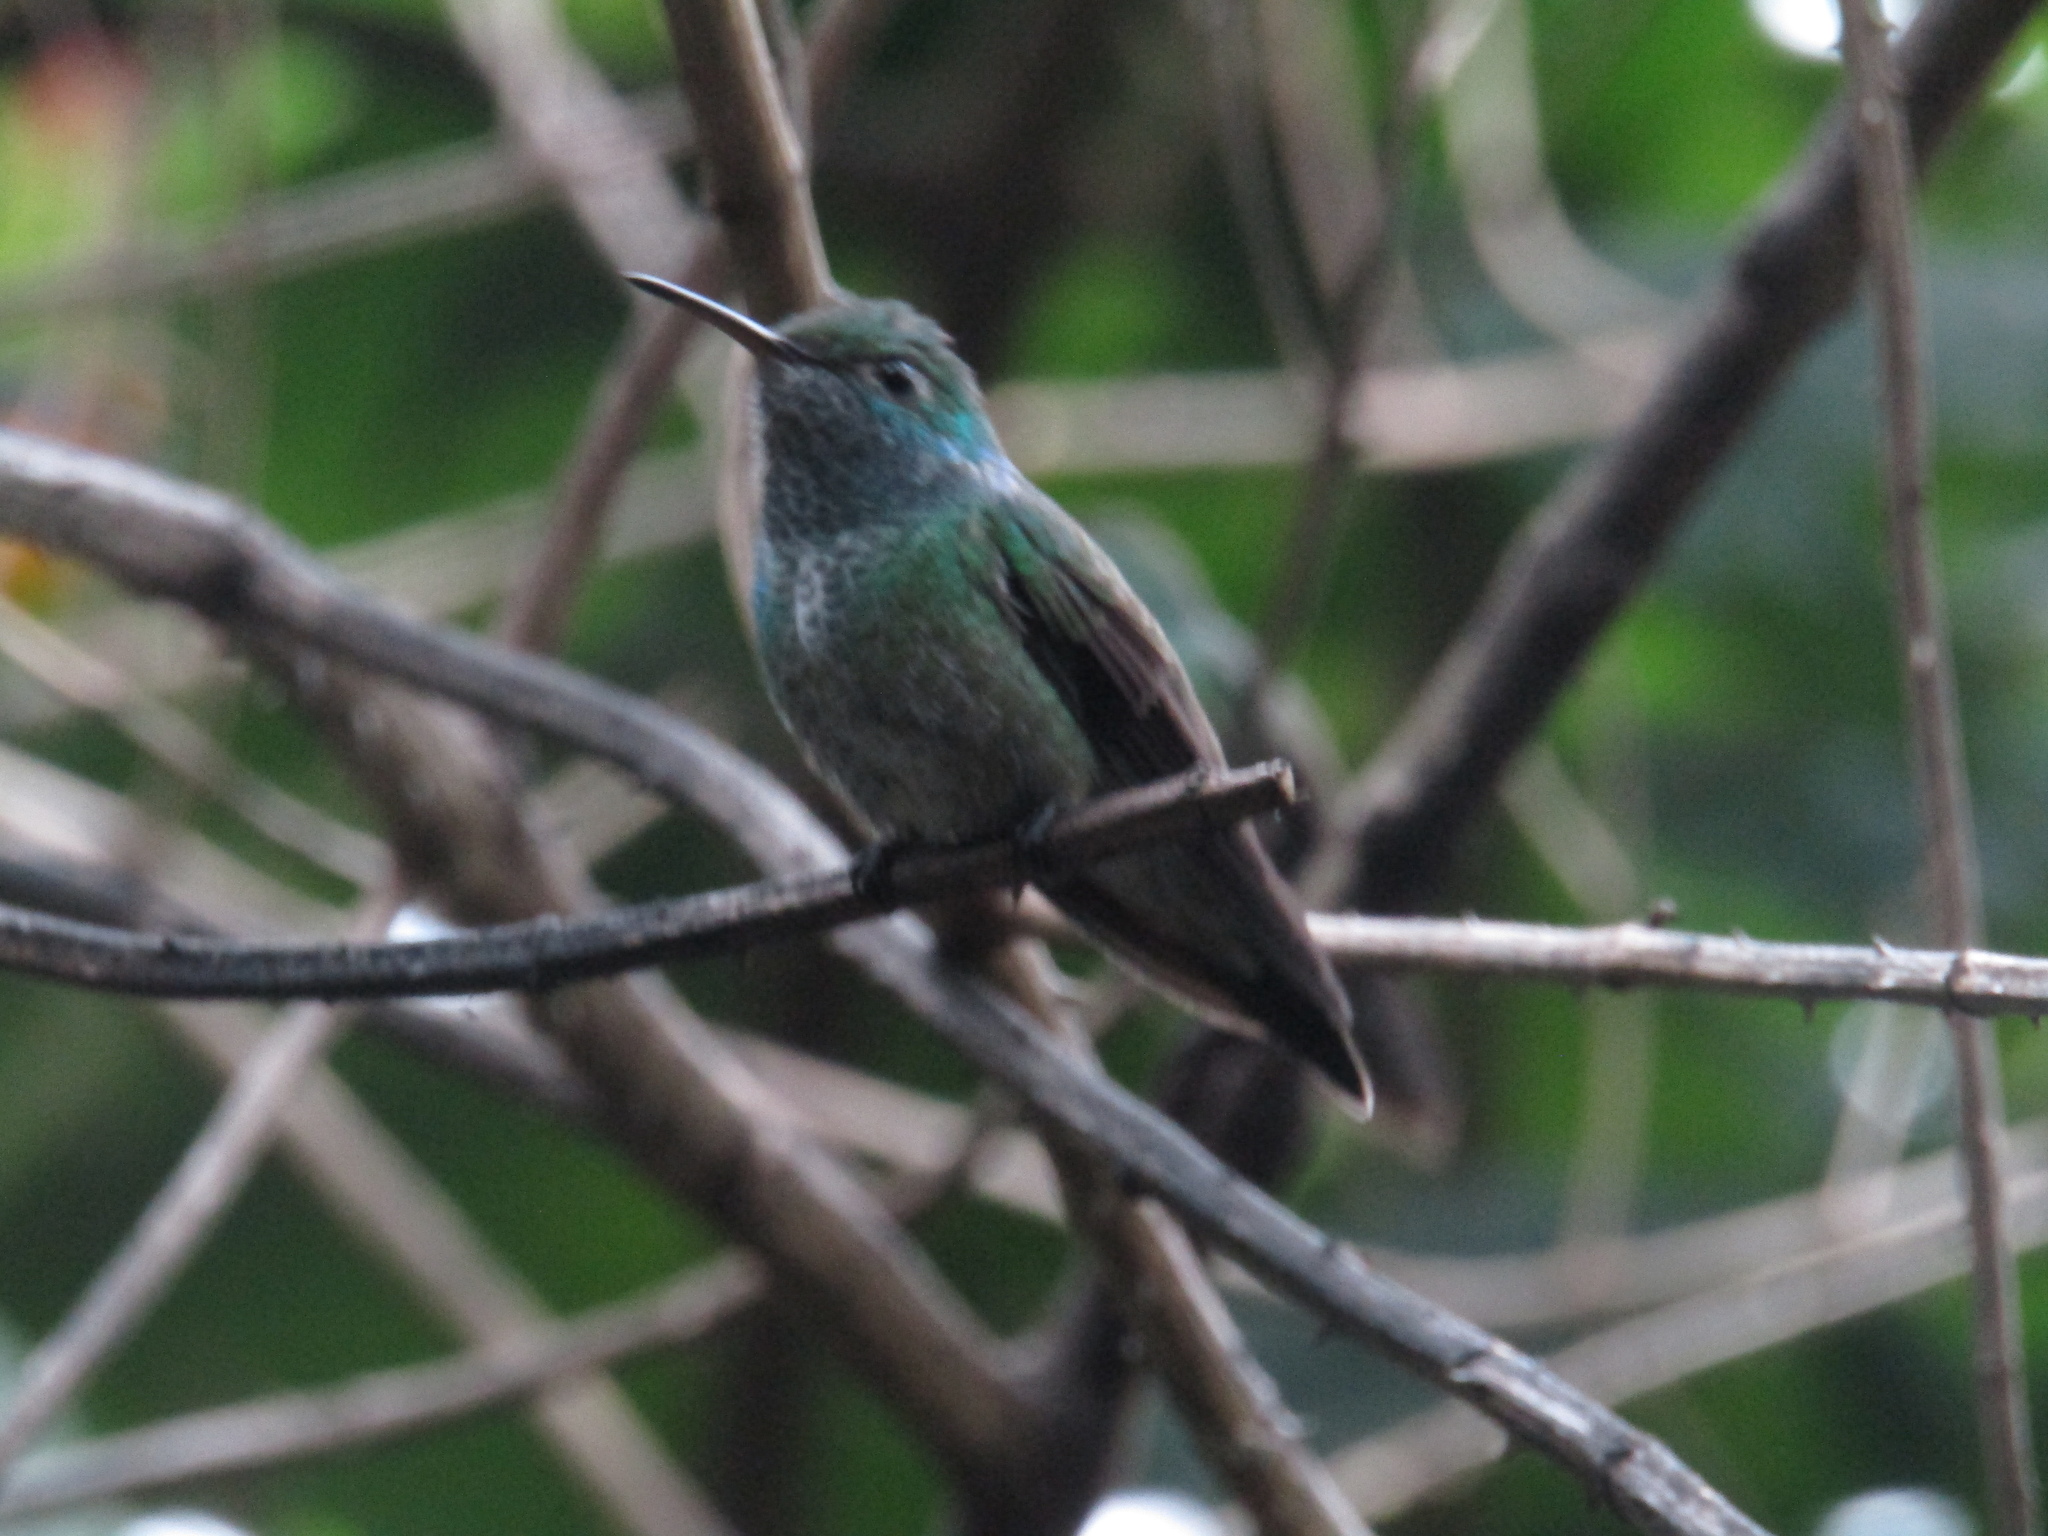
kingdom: Animalia
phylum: Chordata
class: Aves
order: Apodiformes
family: Trochilidae
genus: Chrysuronia
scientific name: Chrysuronia versicolor
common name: Versicolored emerald
